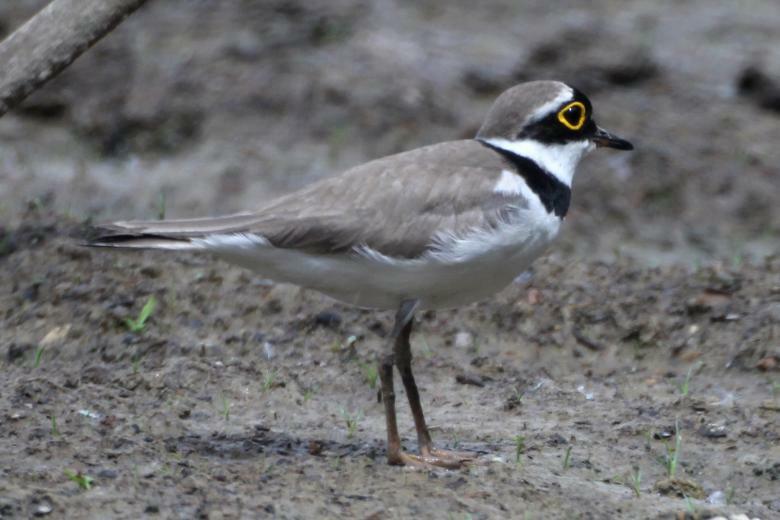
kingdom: Animalia
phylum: Chordata
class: Aves
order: Charadriiformes
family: Charadriidae
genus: Charadrius
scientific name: Charadrius dubius
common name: Little ringed plover
